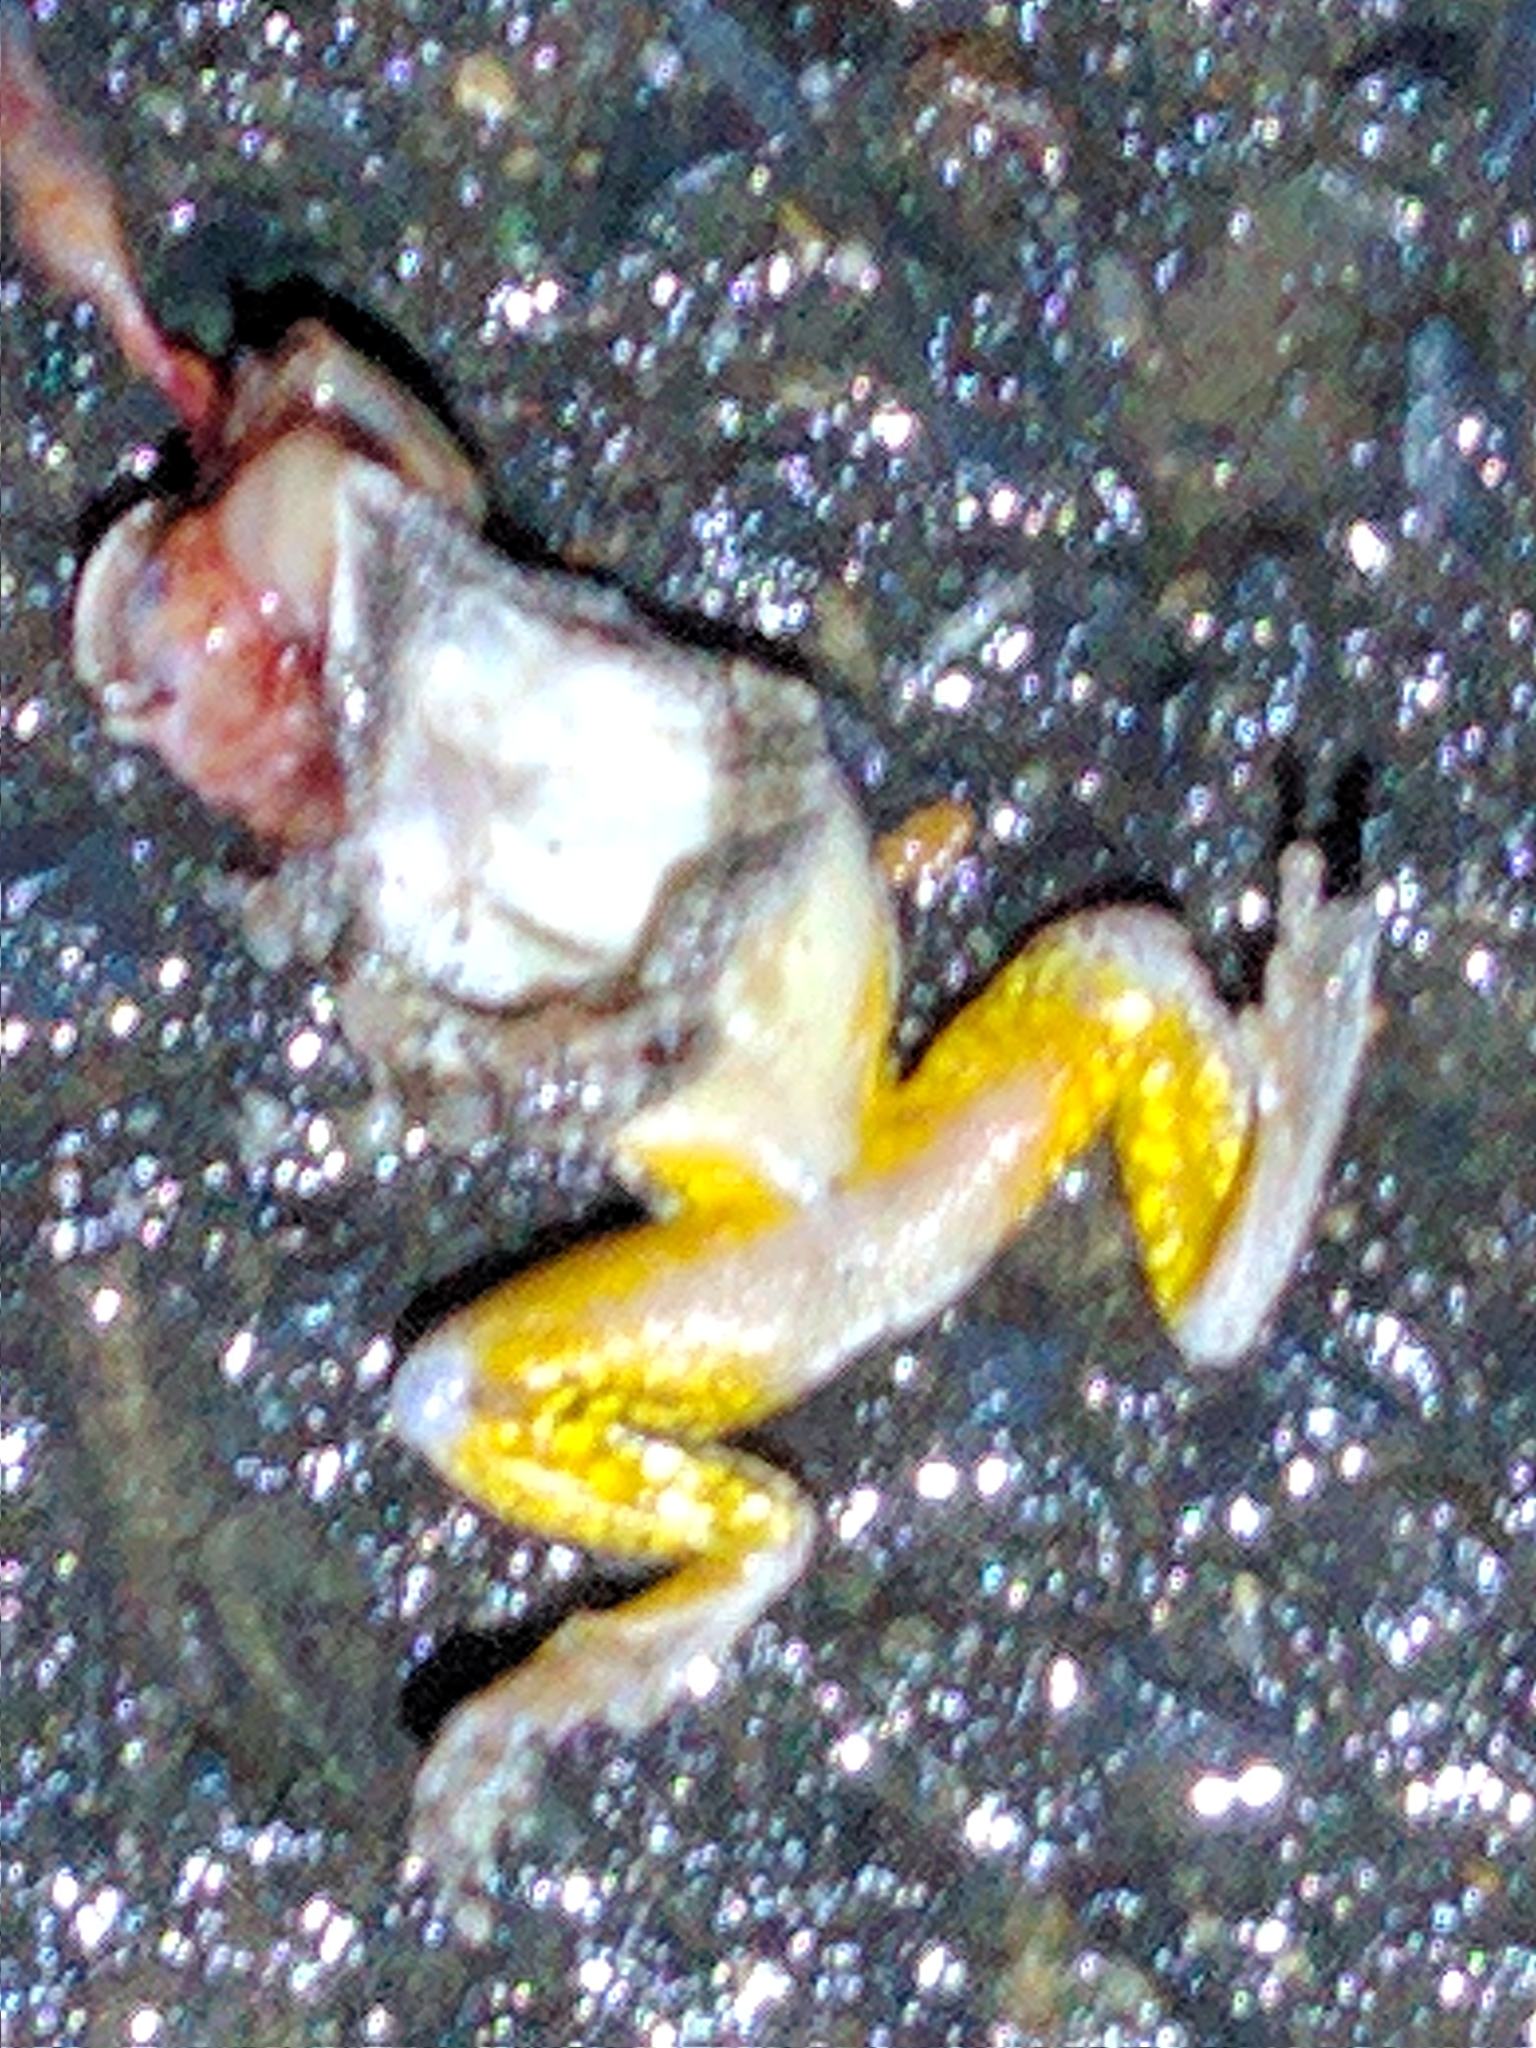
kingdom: Animalia
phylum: Chordata
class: Amphibia
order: Anura
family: Ranidae
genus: Lithobates
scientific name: Lithobates palustris
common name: Pickerel frog
